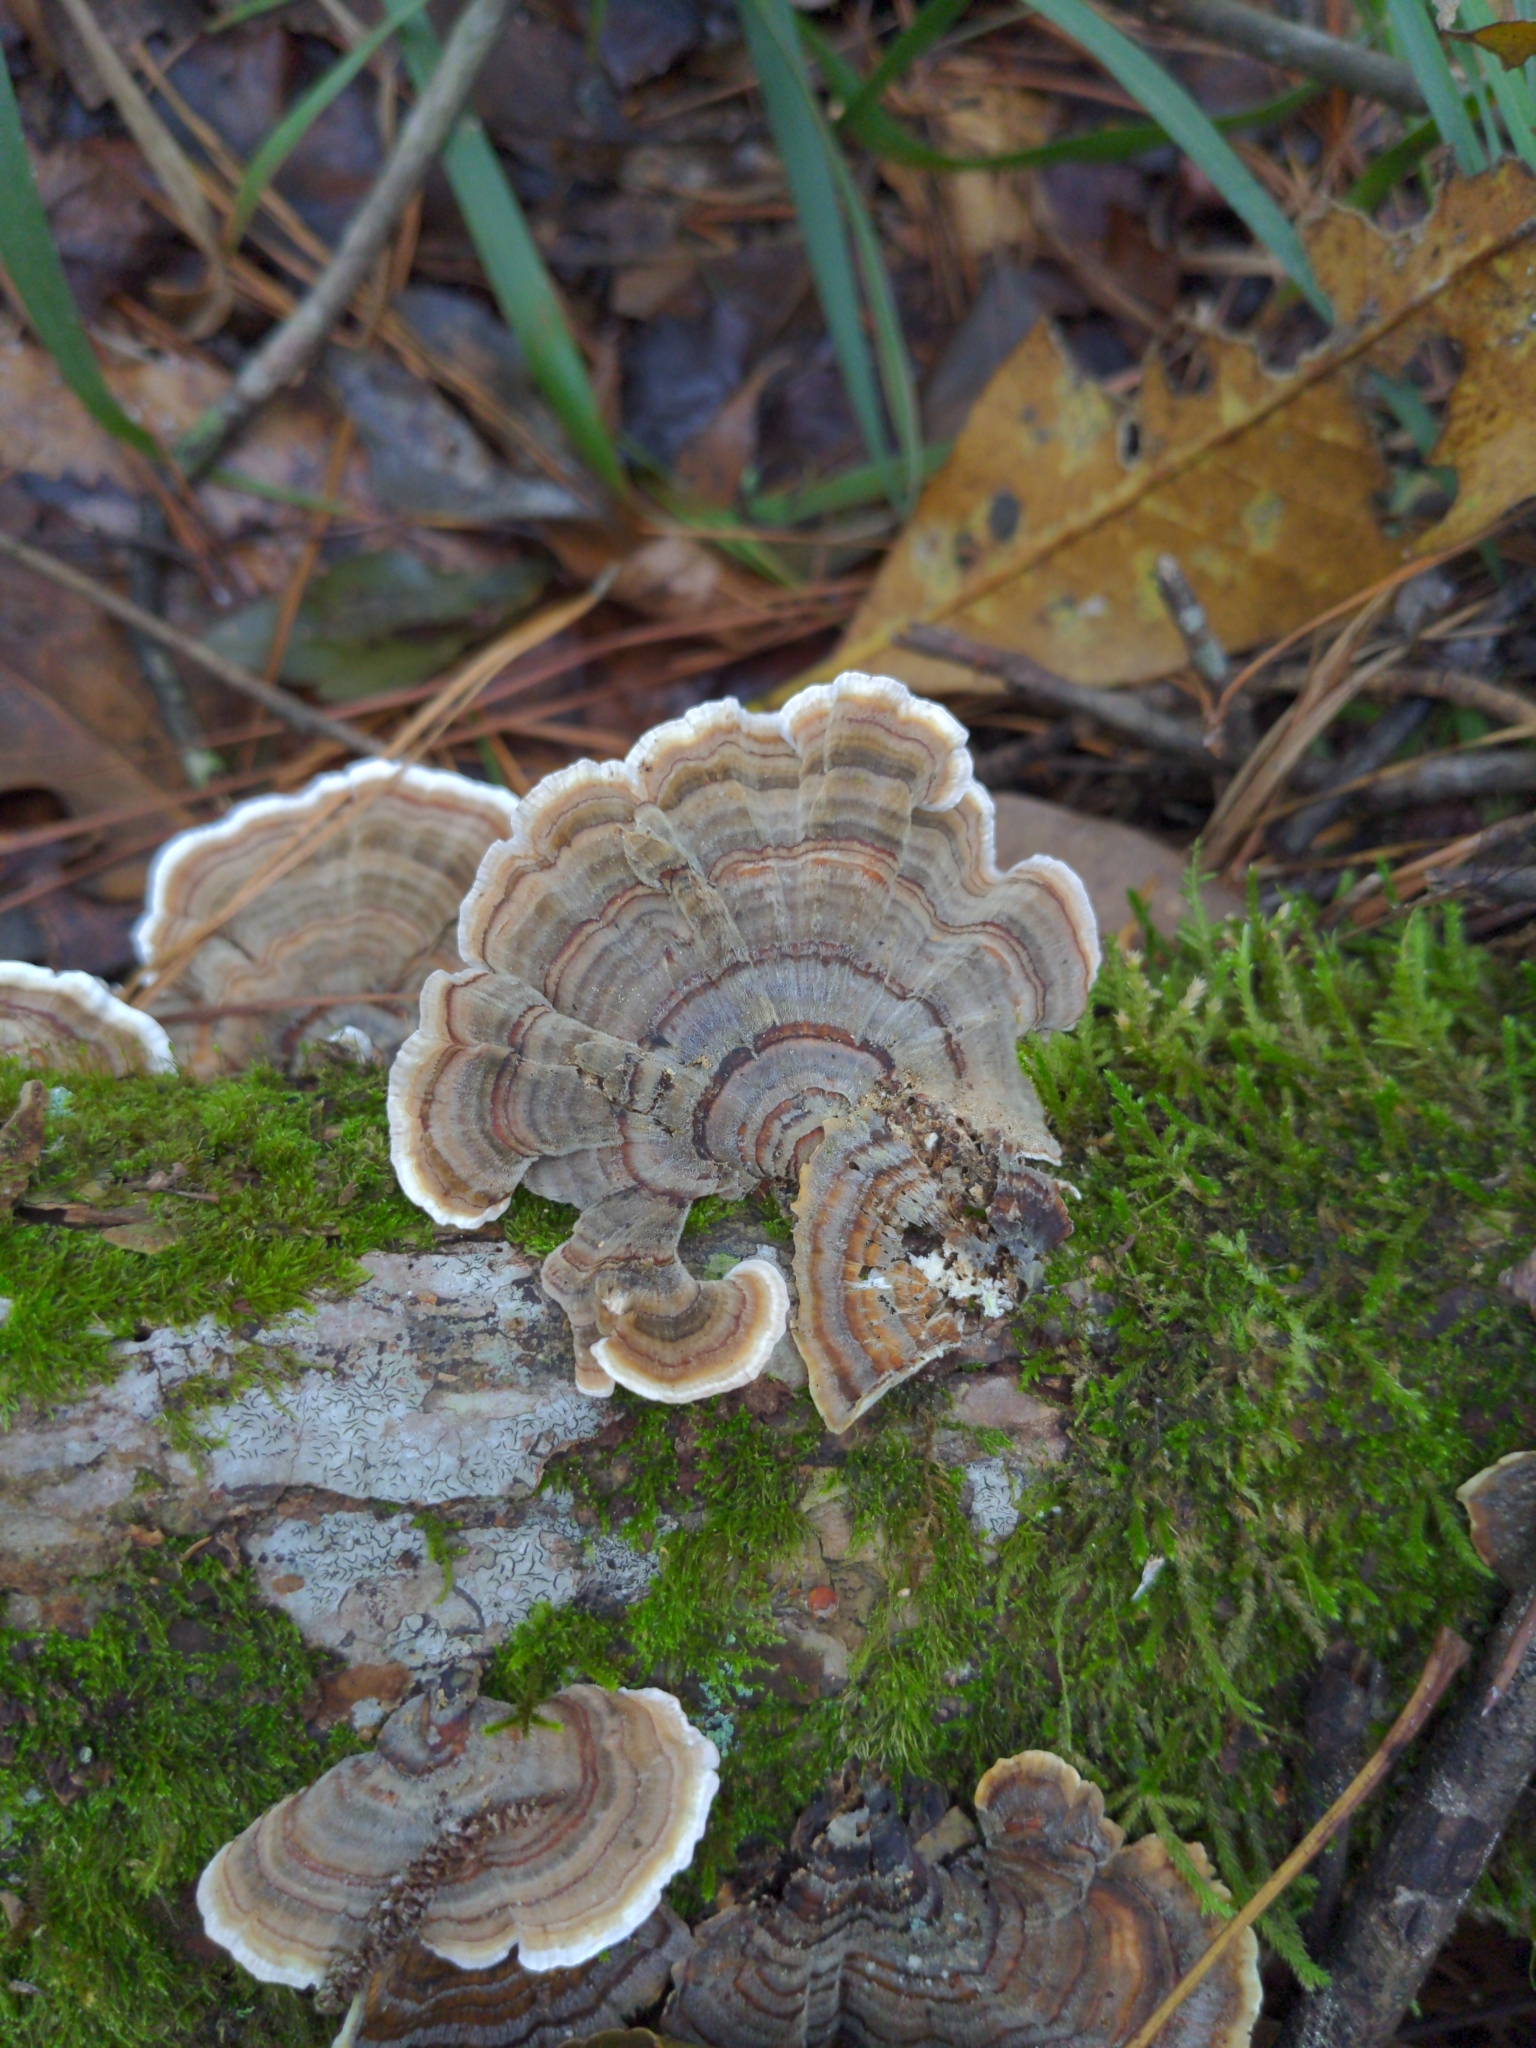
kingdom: Fungi
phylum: Basidiomycota
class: Agaricomycetes
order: Polyporales
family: Polyporaceae
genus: Trametes
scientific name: Trametes versicolor
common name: Turkeytail
